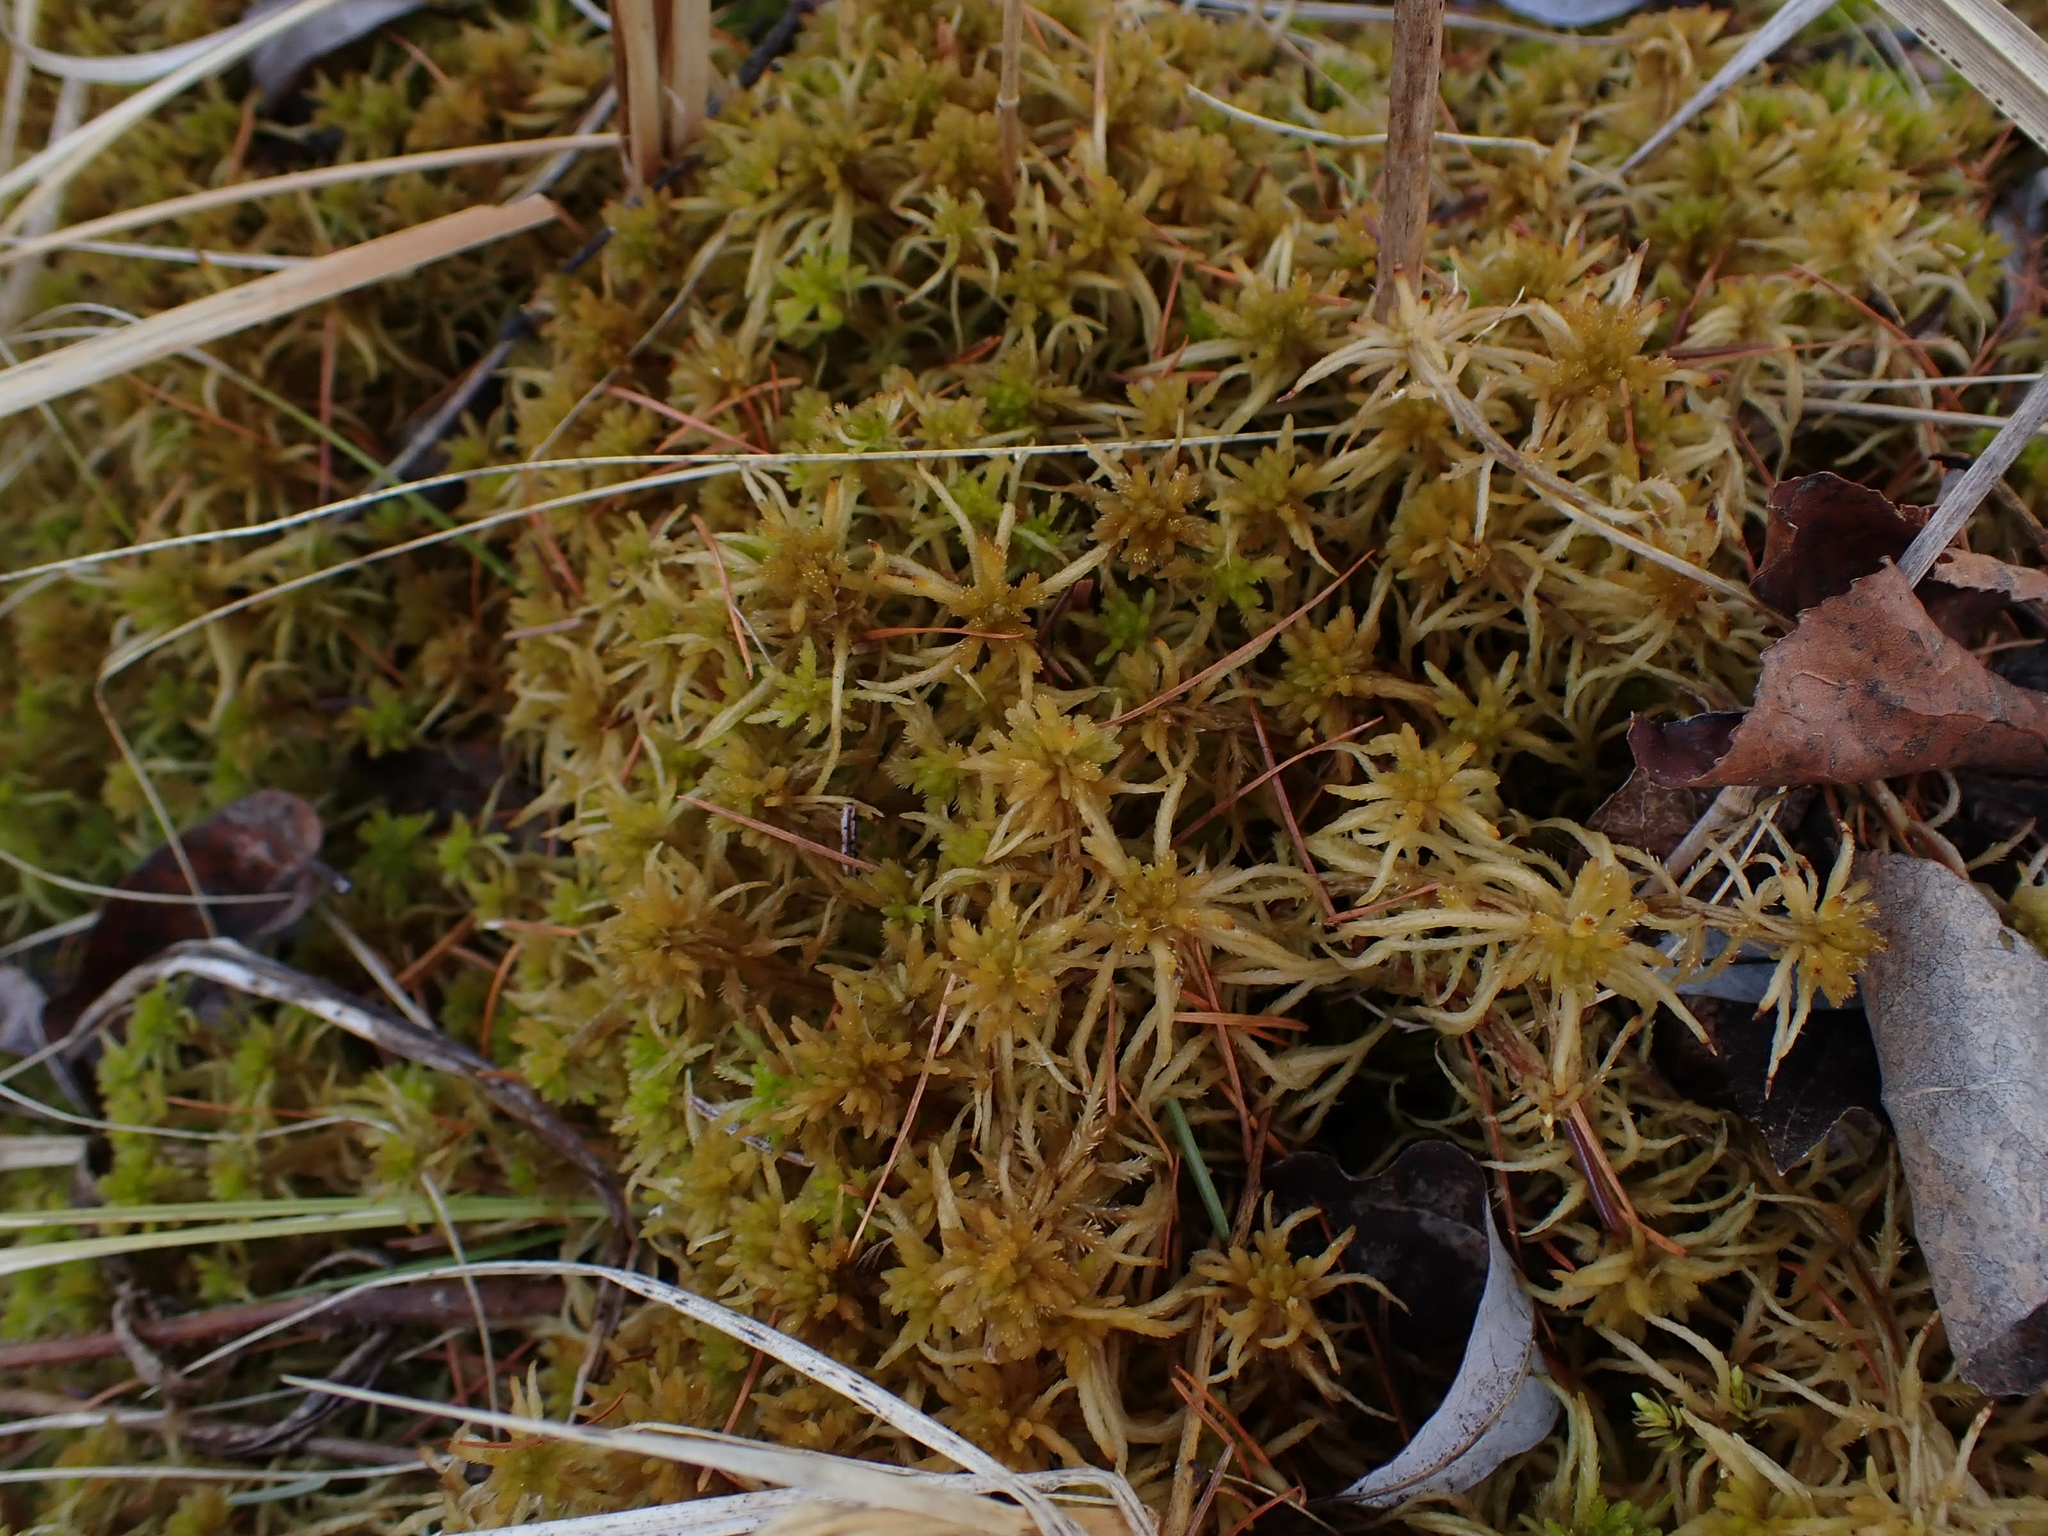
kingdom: Plantae
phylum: Bryophyta
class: Sphagnopsida
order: Sphagnales
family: Sphagnaceae
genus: Sphagnum
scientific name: Sphagnum teres
